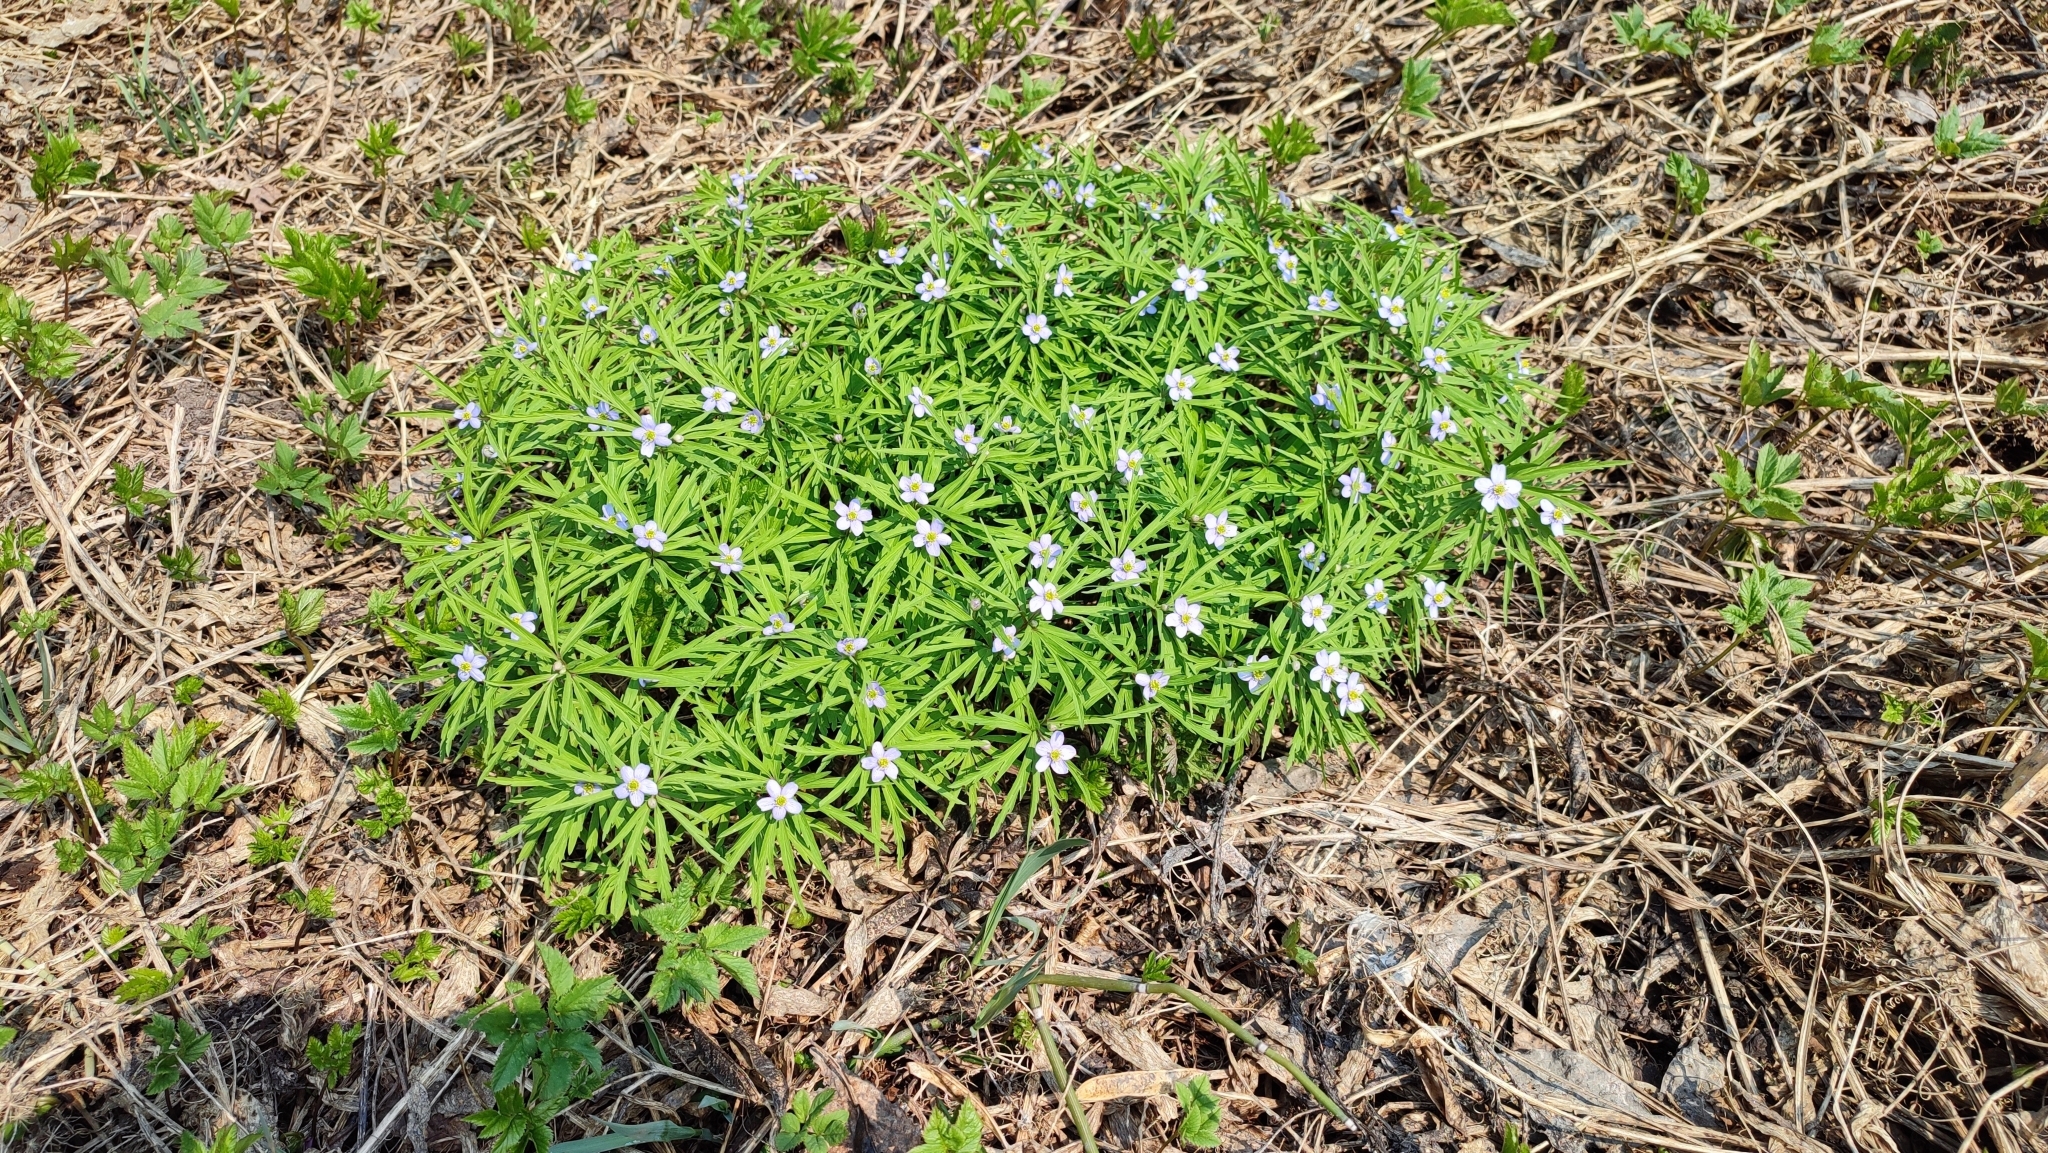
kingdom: Plantae
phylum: Tracheophyta
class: Magnoliopsida
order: Ranunculales
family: Ranunculaceae
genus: Anemone
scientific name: Anemone caerulea
